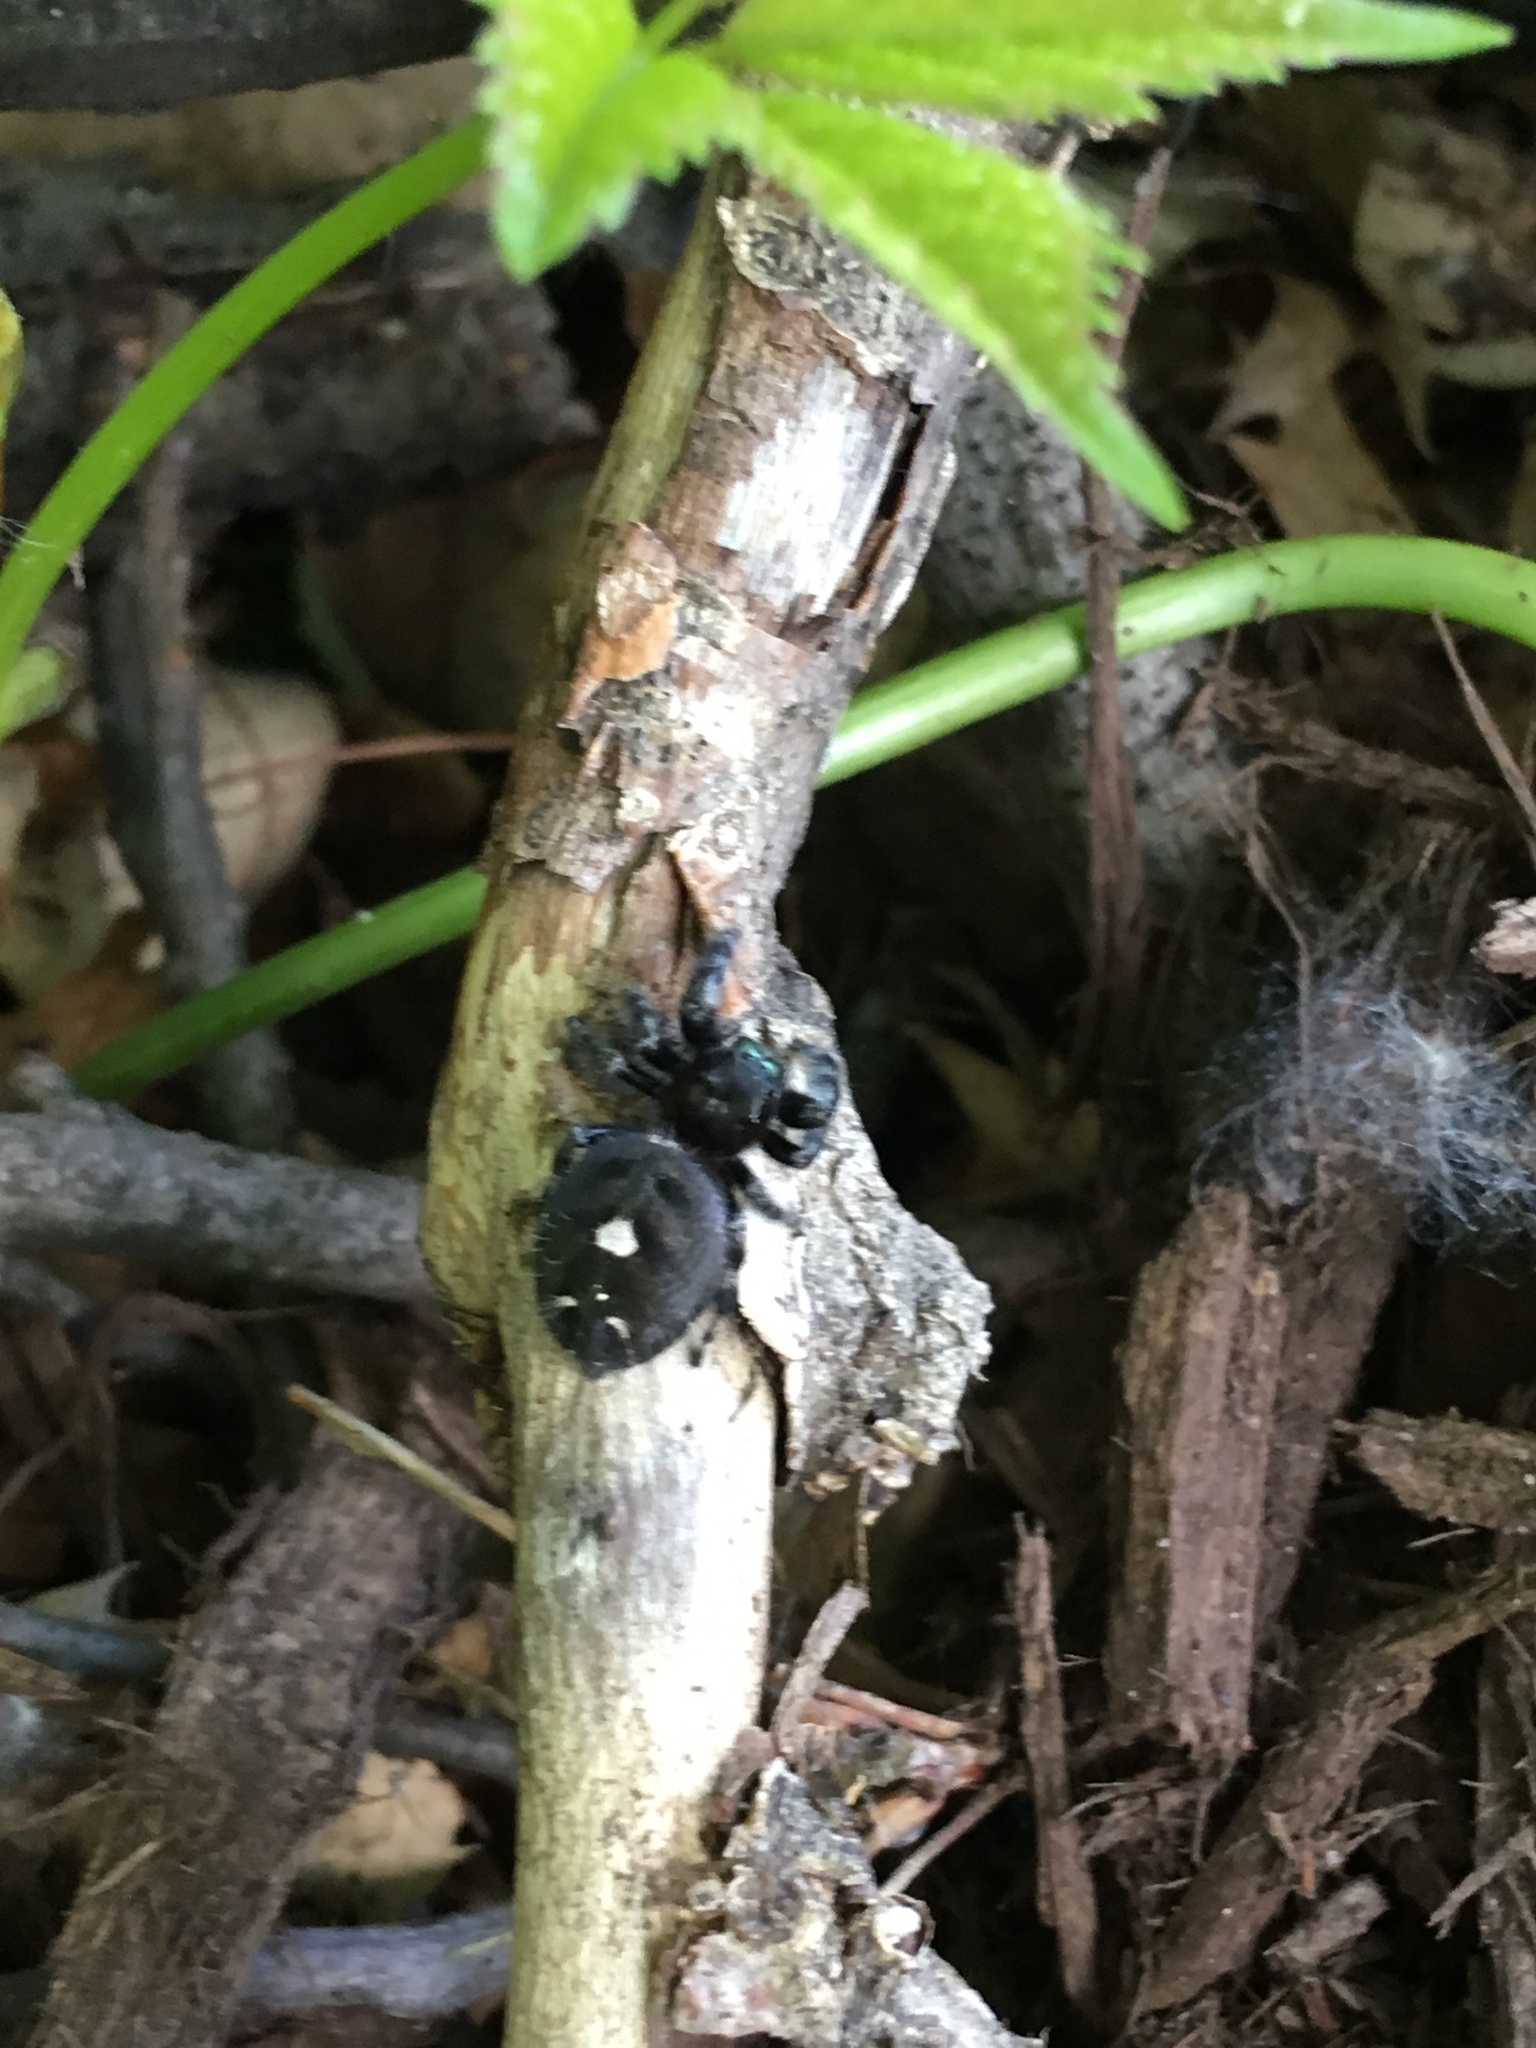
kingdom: Animalia
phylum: Arthropoda
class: Arachnida
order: Araneae
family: Salticidae
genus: Phidippus
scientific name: Phidippus audax
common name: Bold jumper
